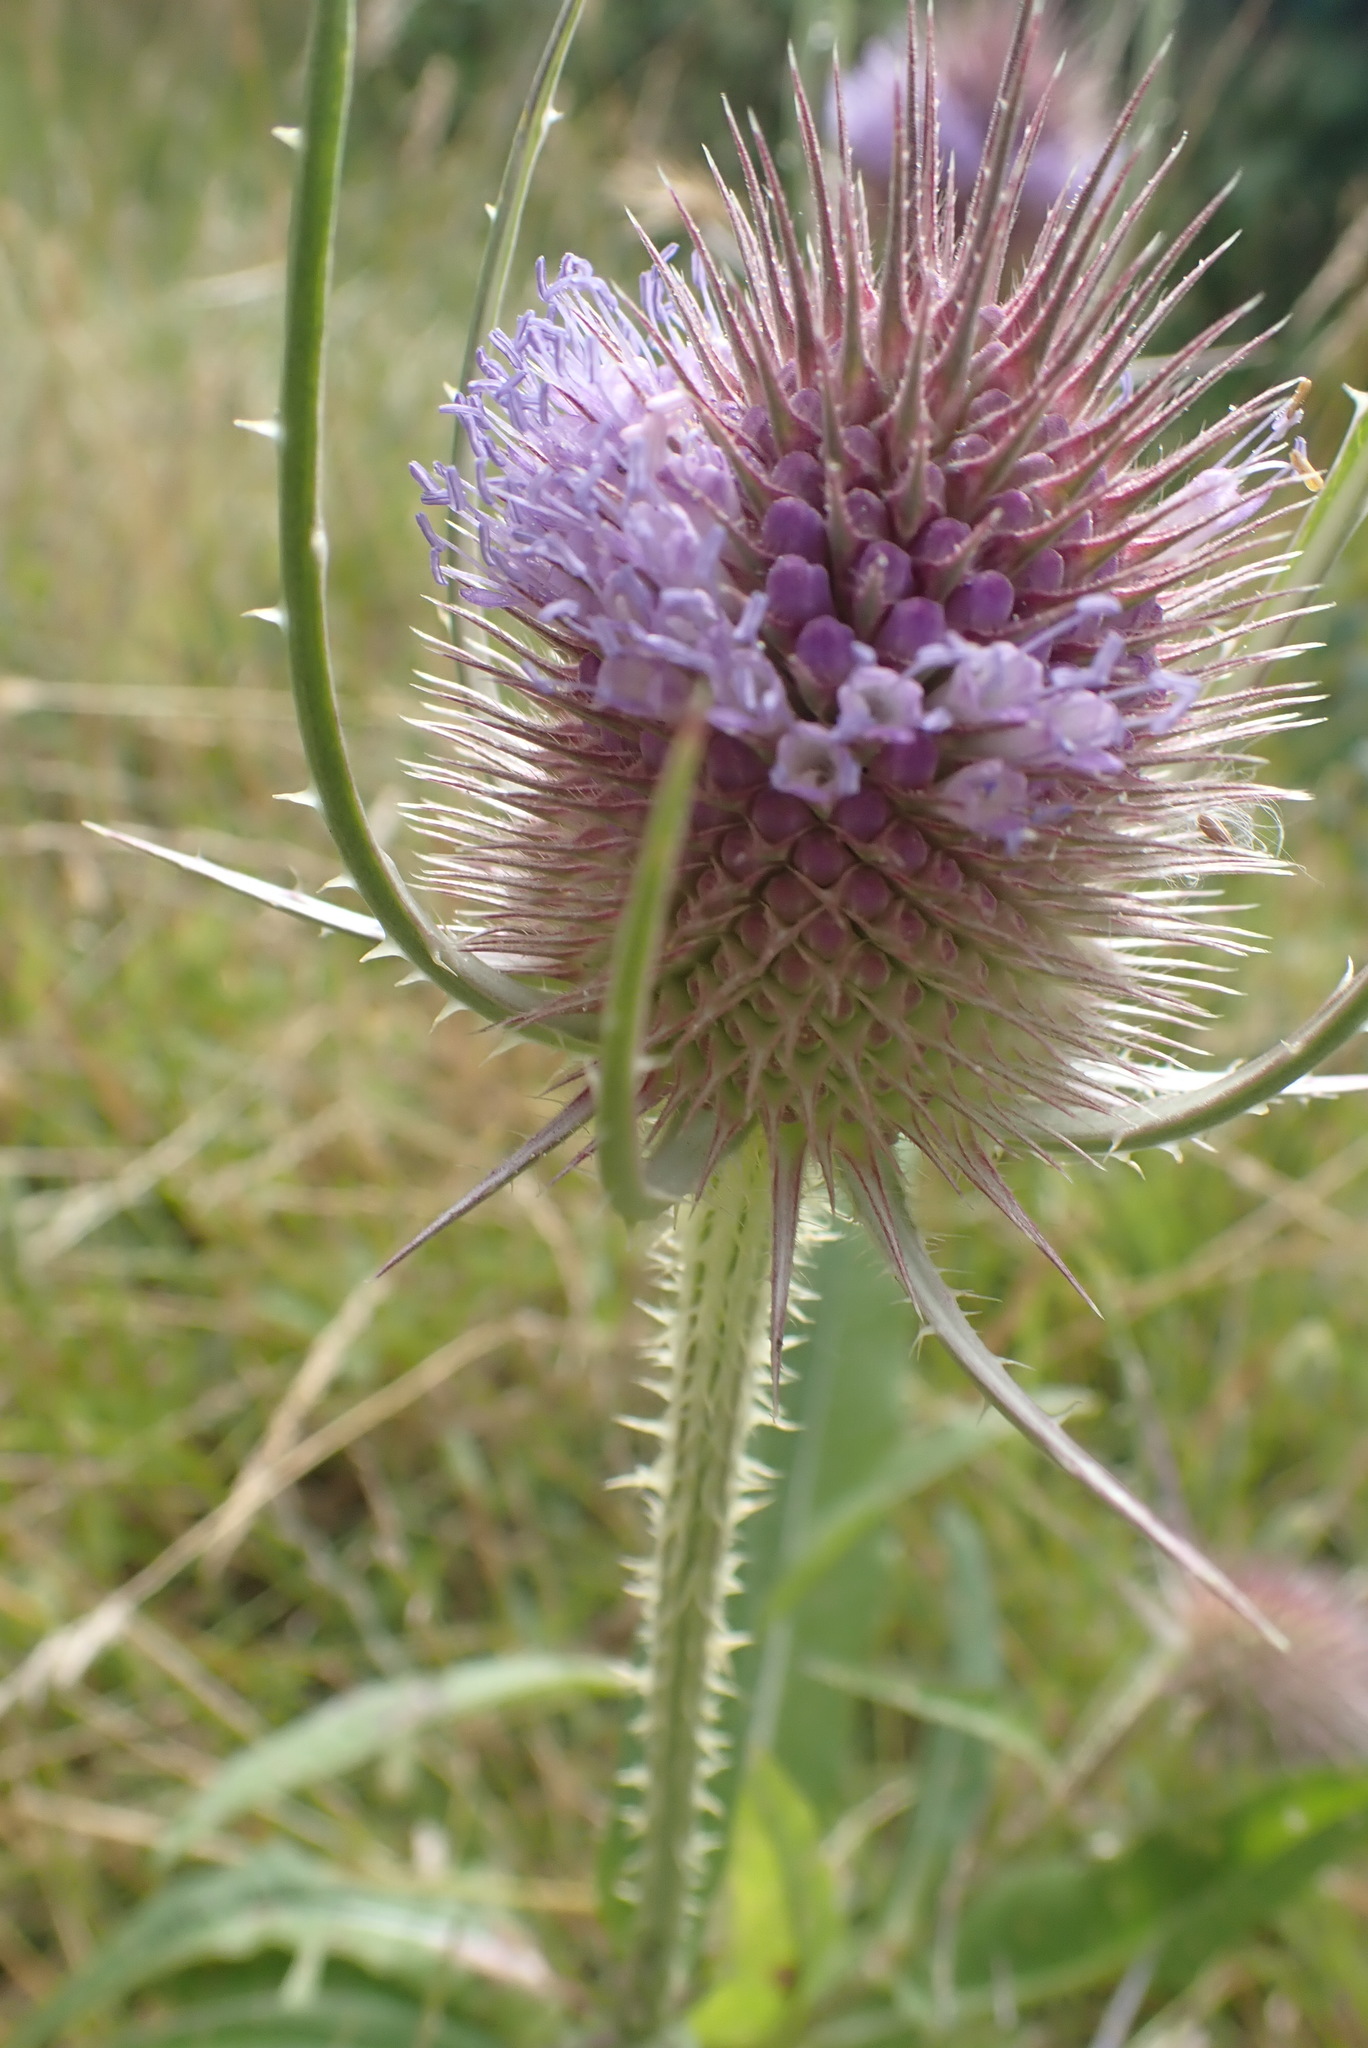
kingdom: Plantae
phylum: Tracheophyta
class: Magnoliopsida
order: Dipsacales
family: Caprifoliaceae
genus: Dipsacus
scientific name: Dipsacus fullonum
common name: Teasel
